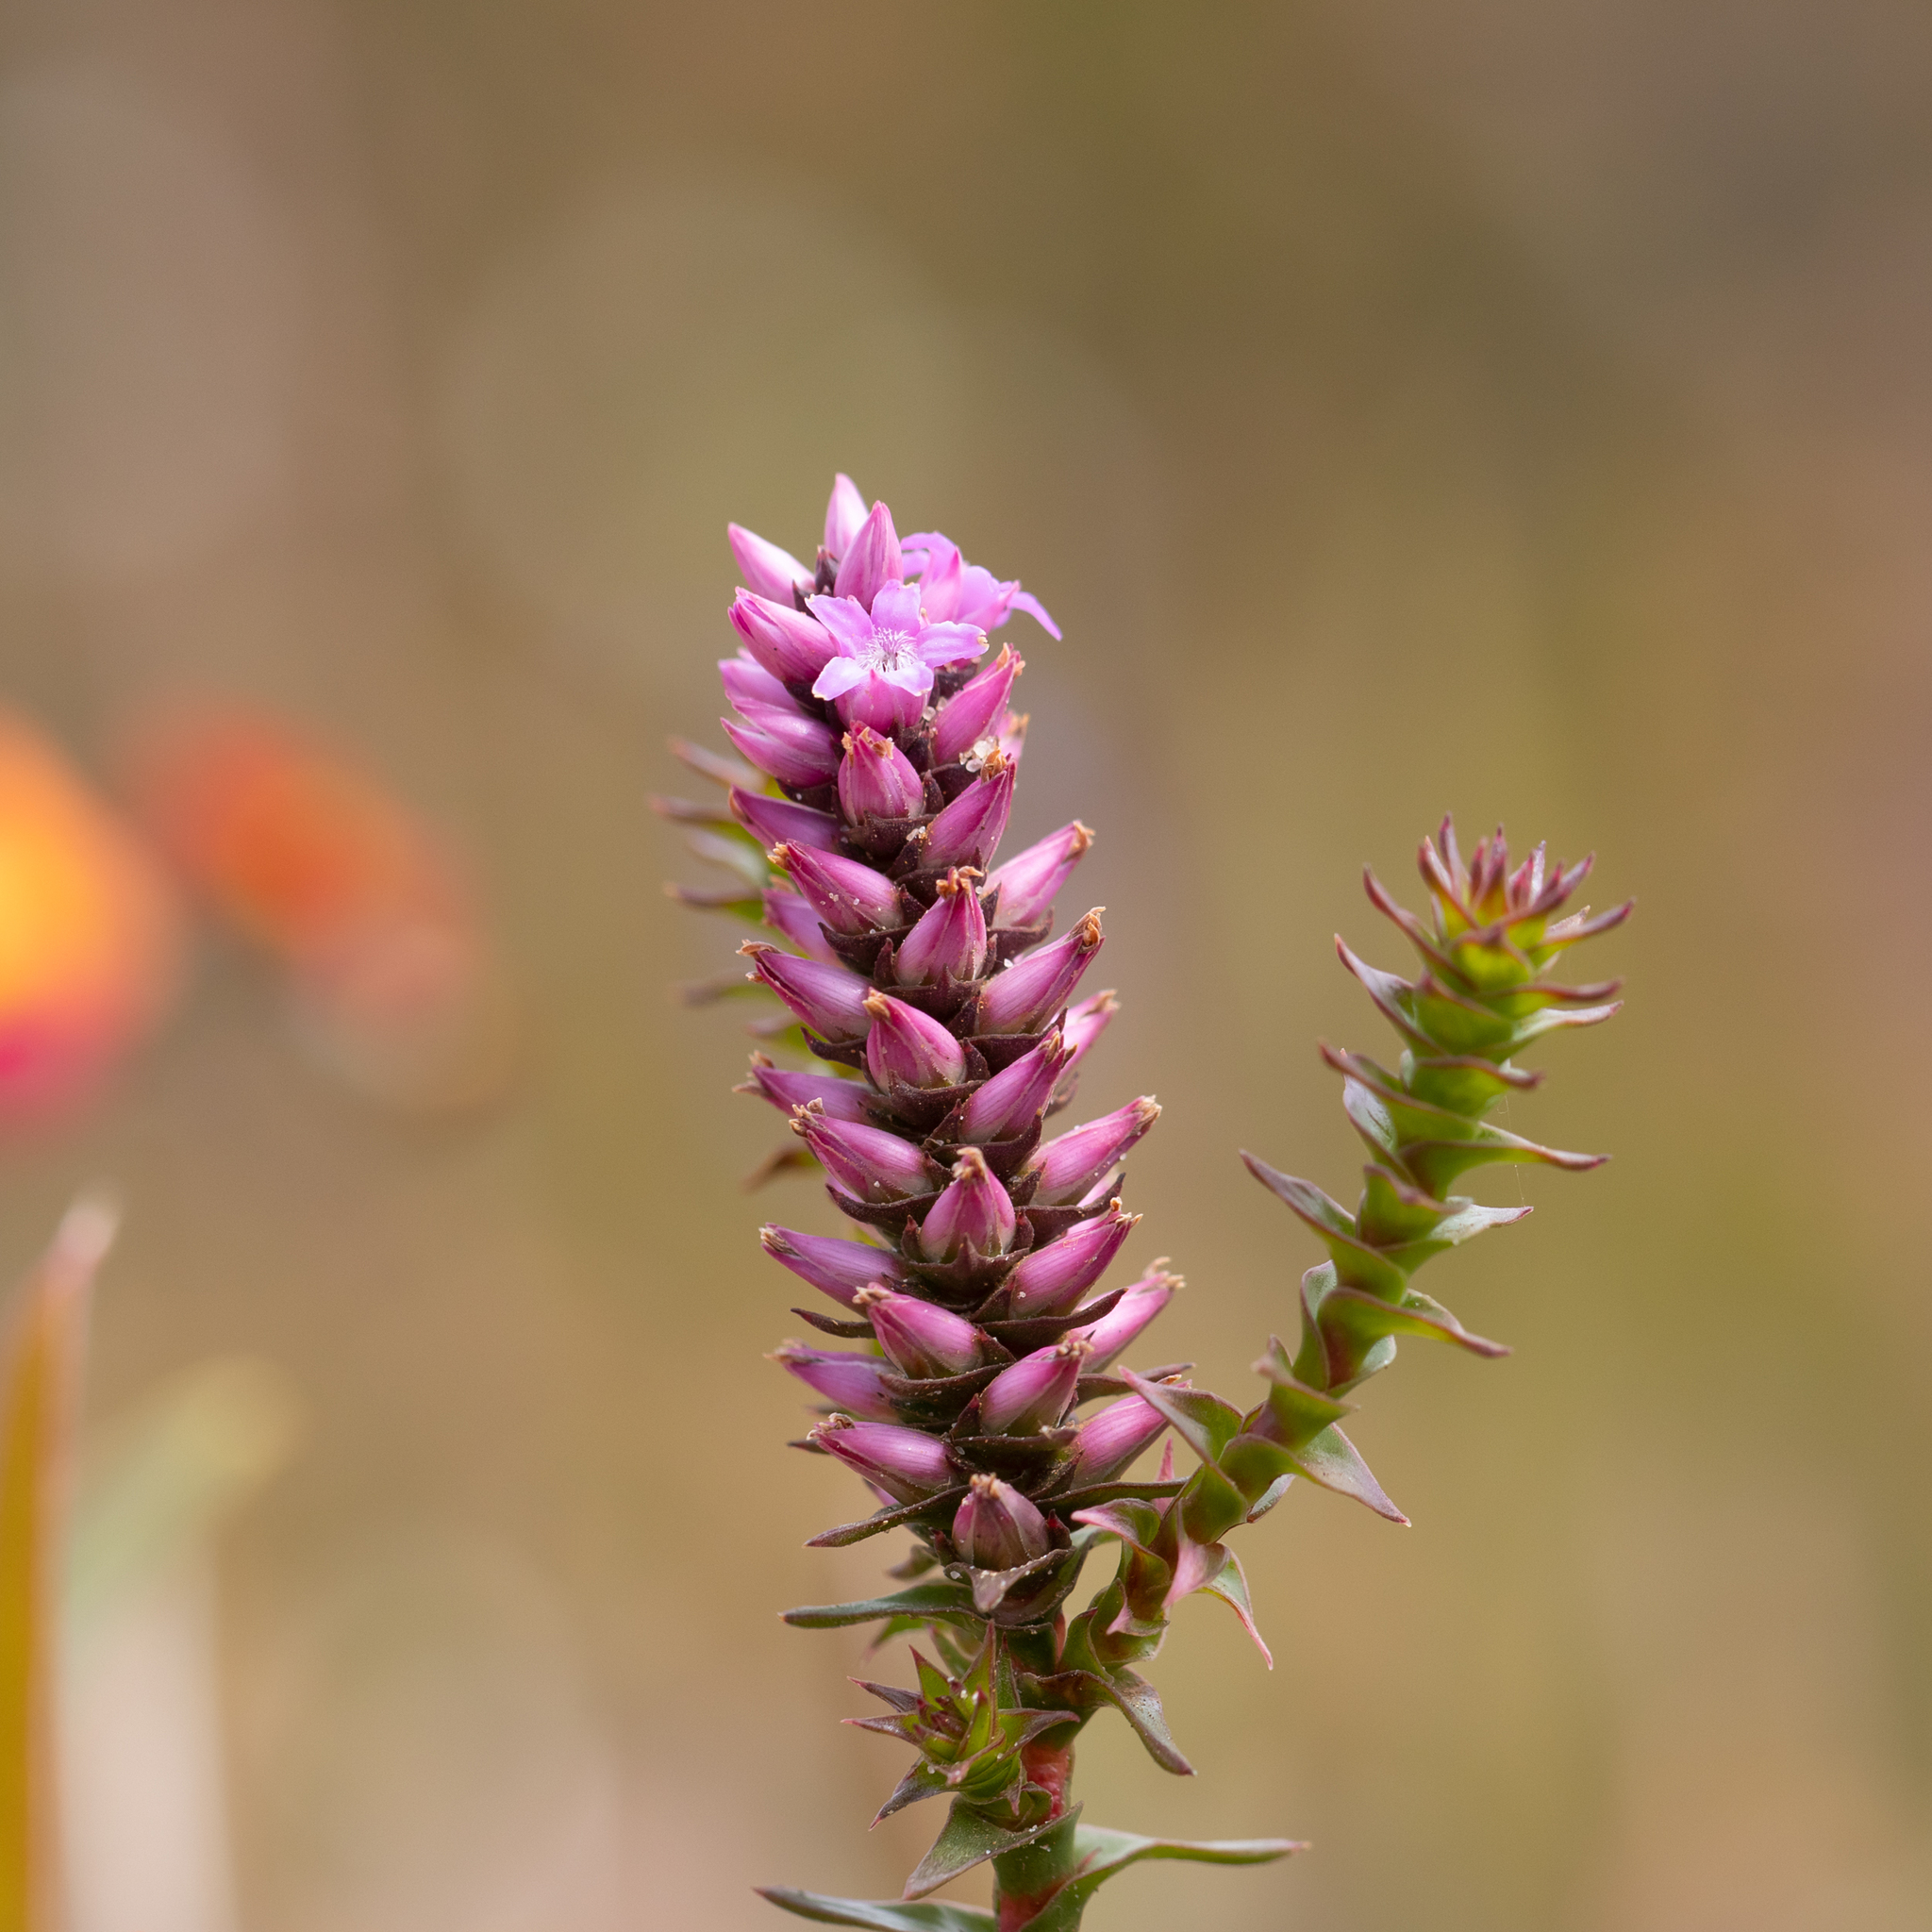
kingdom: Plantae
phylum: Tracheophyta
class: Magnoliopsida
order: Ericales
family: Ericaceae
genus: Andersonia
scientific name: Andersonia simplex
